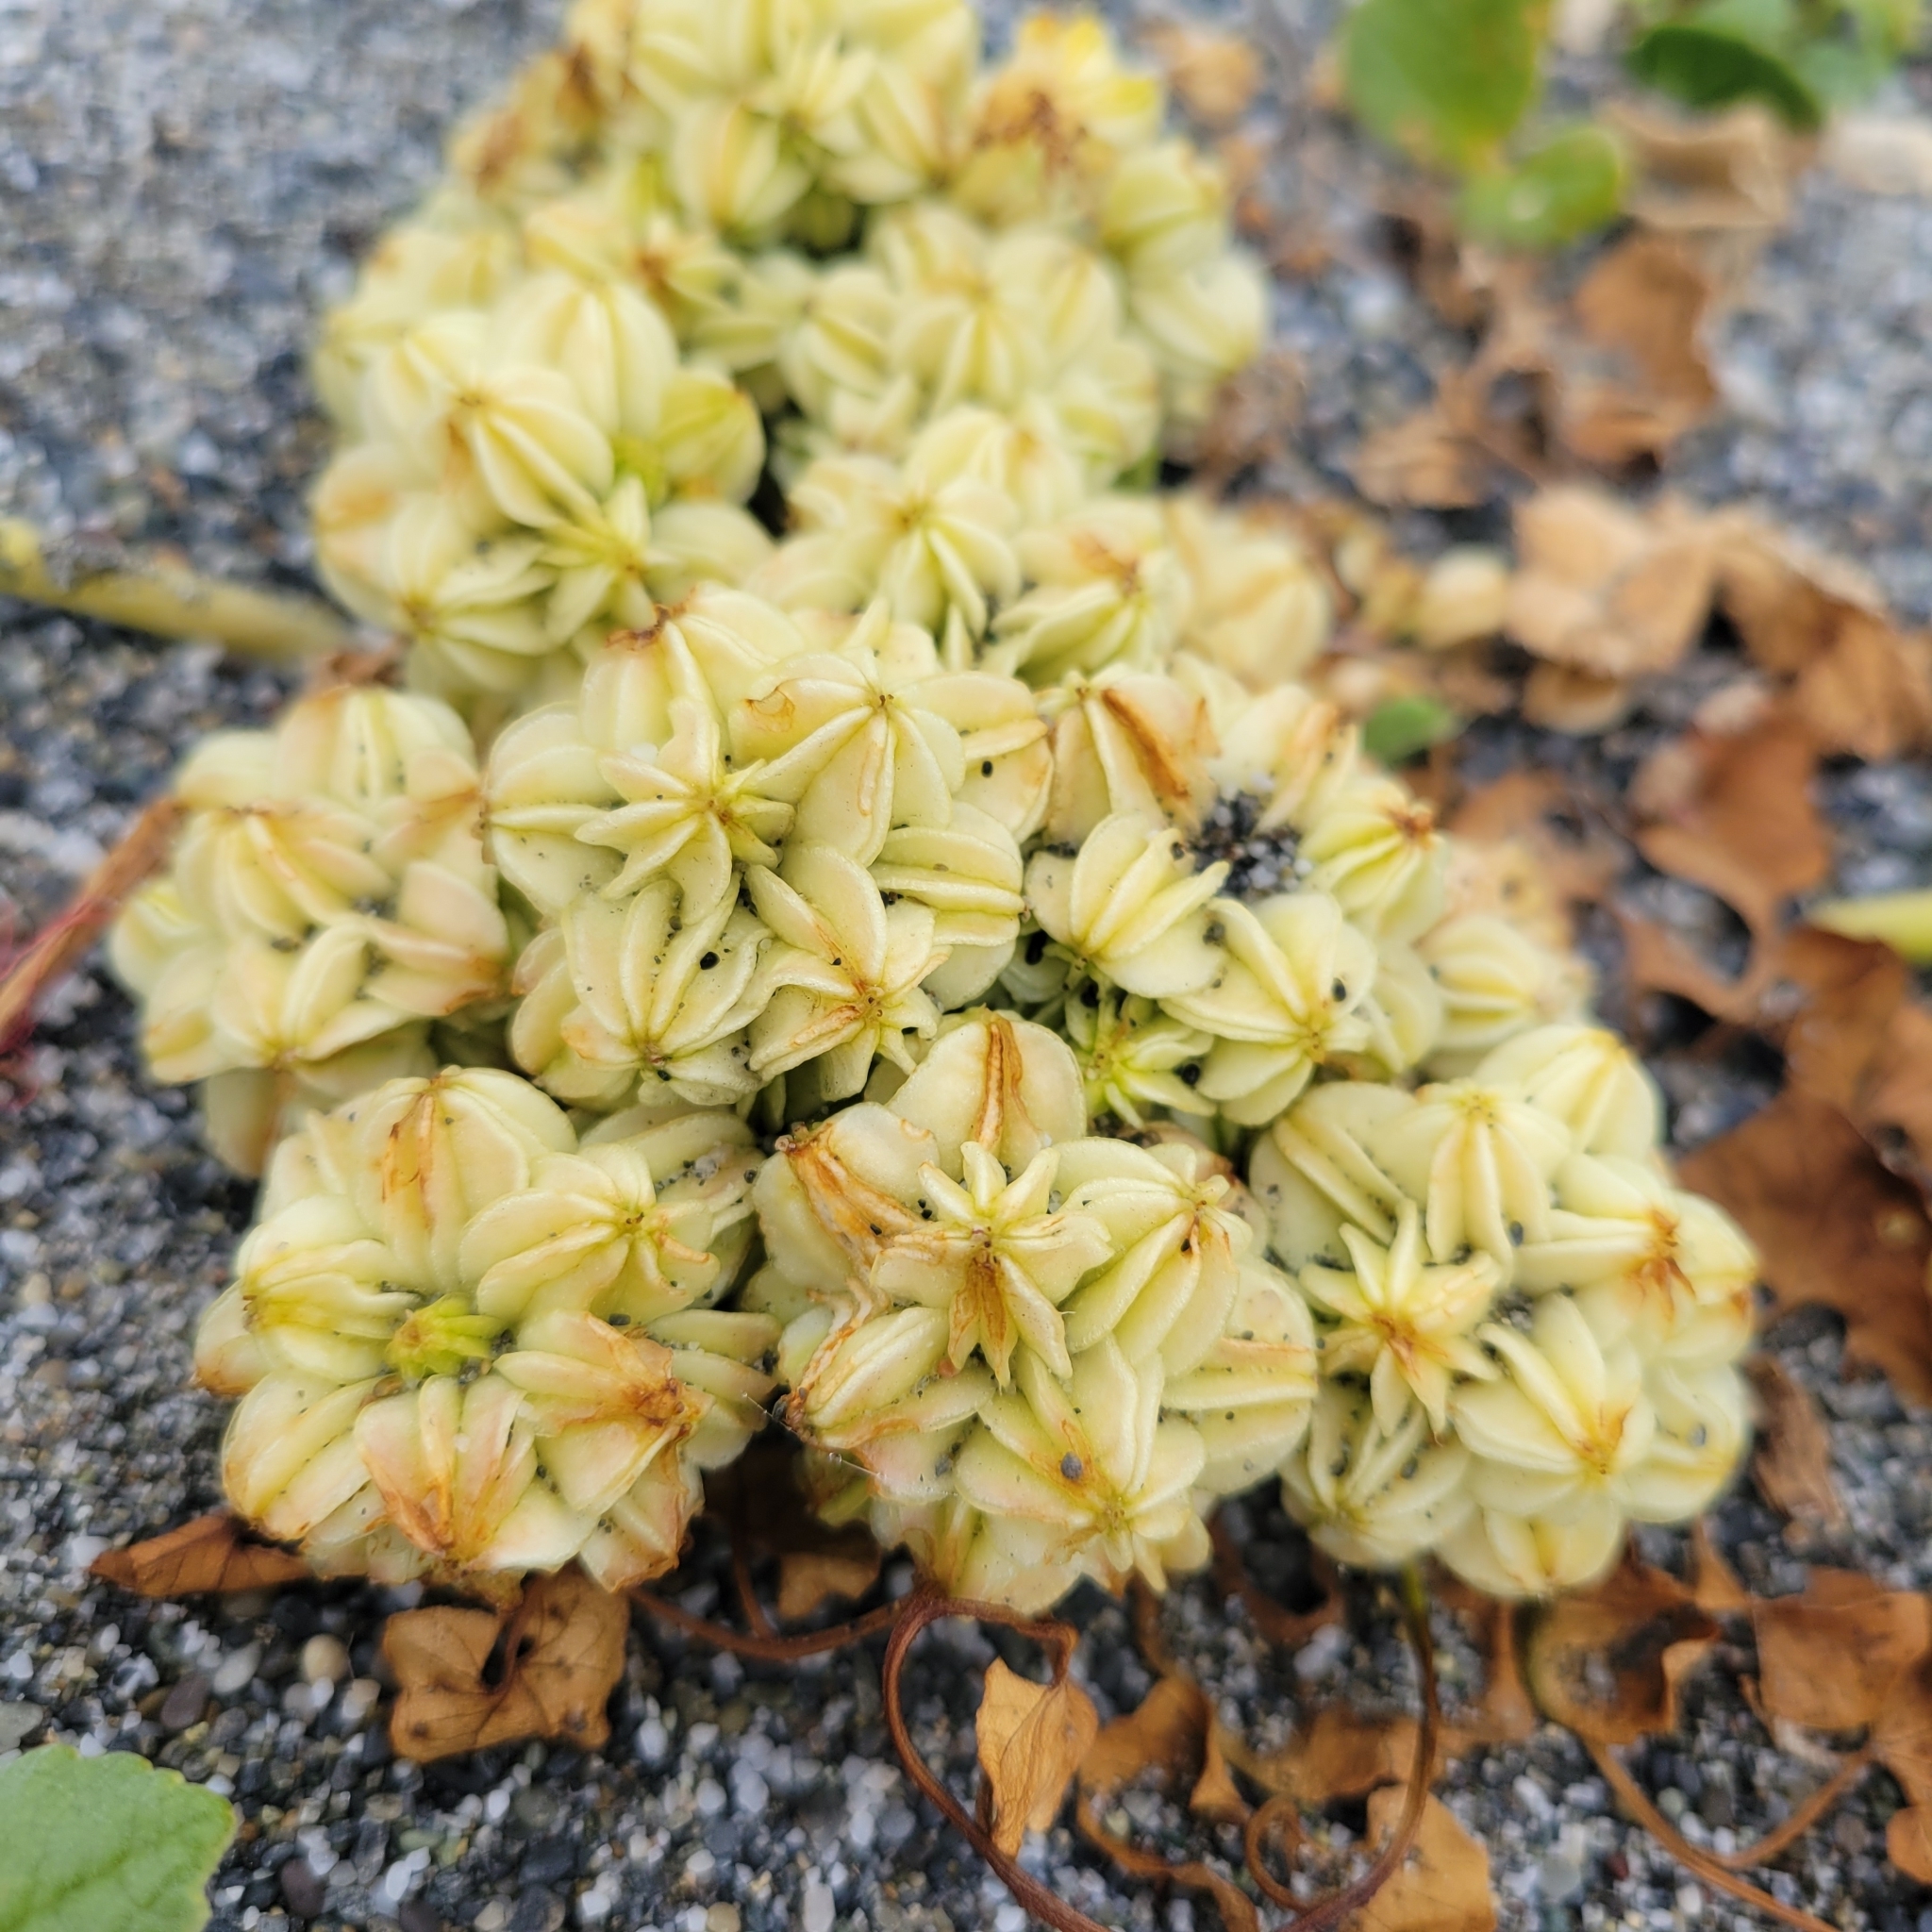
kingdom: Plantae
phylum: Tracheophyta
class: Magnoliopsida
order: Apiales
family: Apiaceae
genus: Glehnia
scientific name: Glehnia littoralis
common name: Beach silvertop
